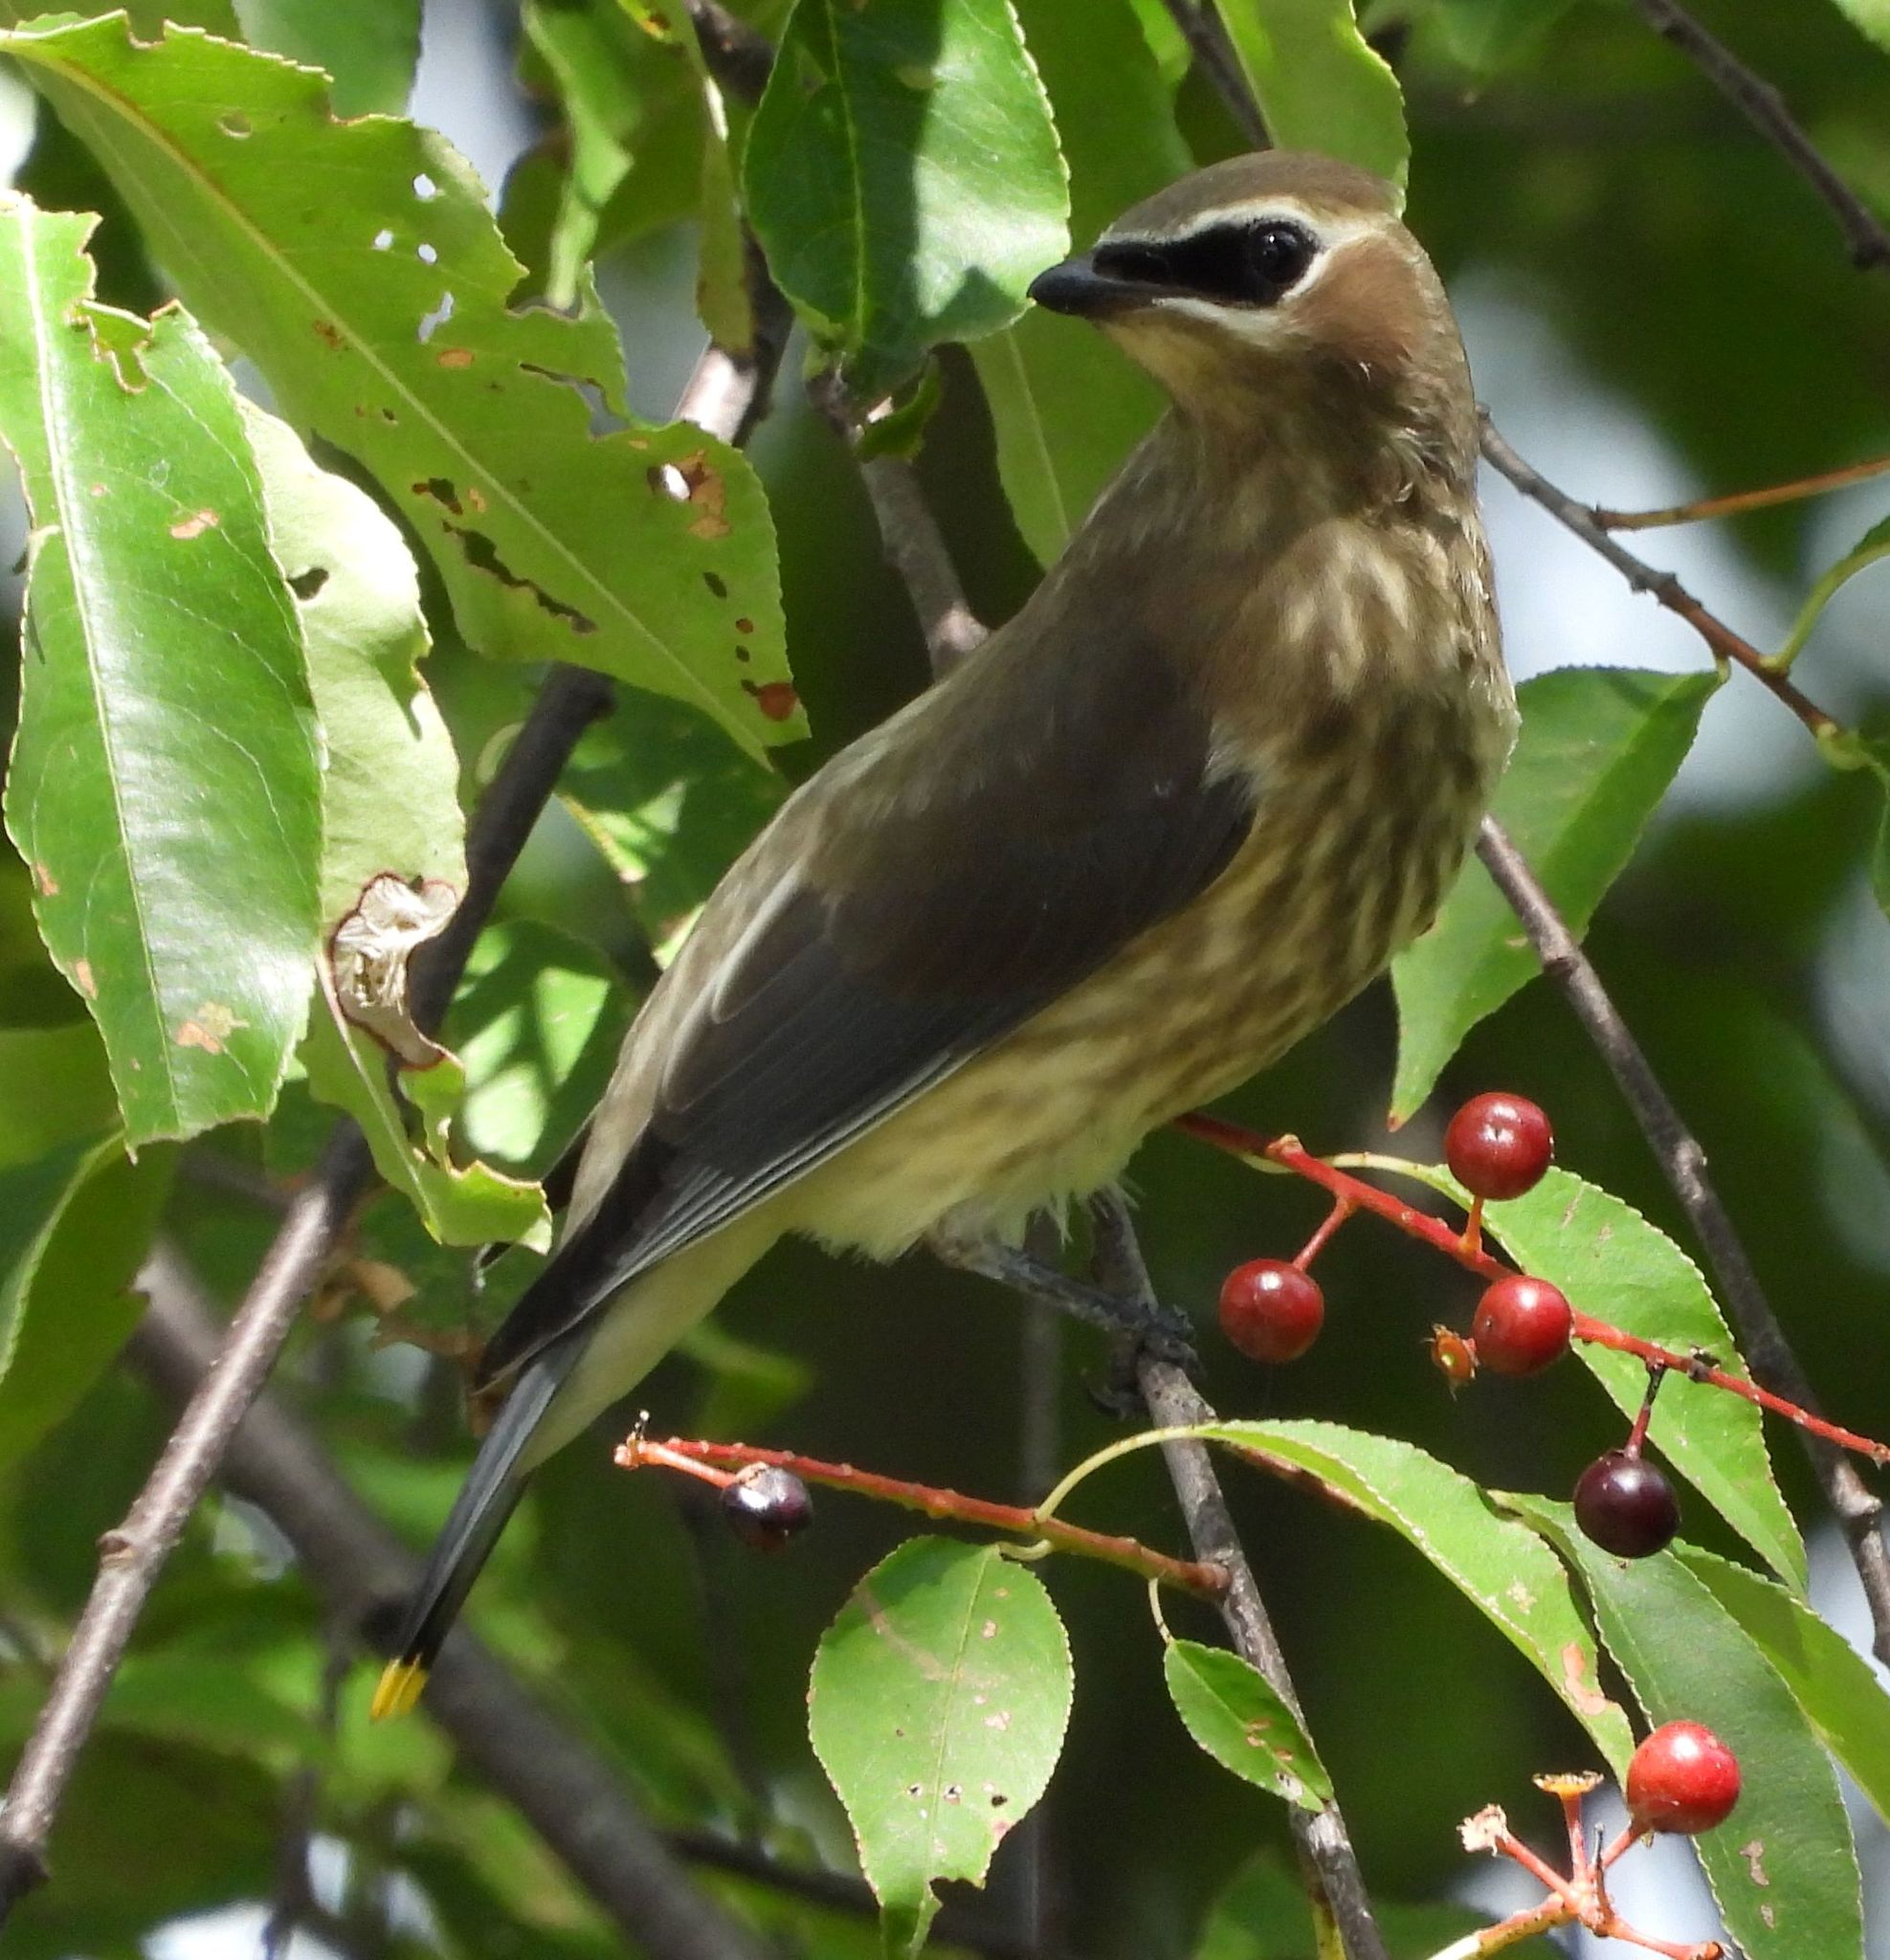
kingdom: Animalia
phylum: Chordata
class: Aves
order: Passeriformes
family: Bombycillidae
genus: Bombycilla
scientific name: Bombycilla cedrorum
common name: Cedar waxwing
